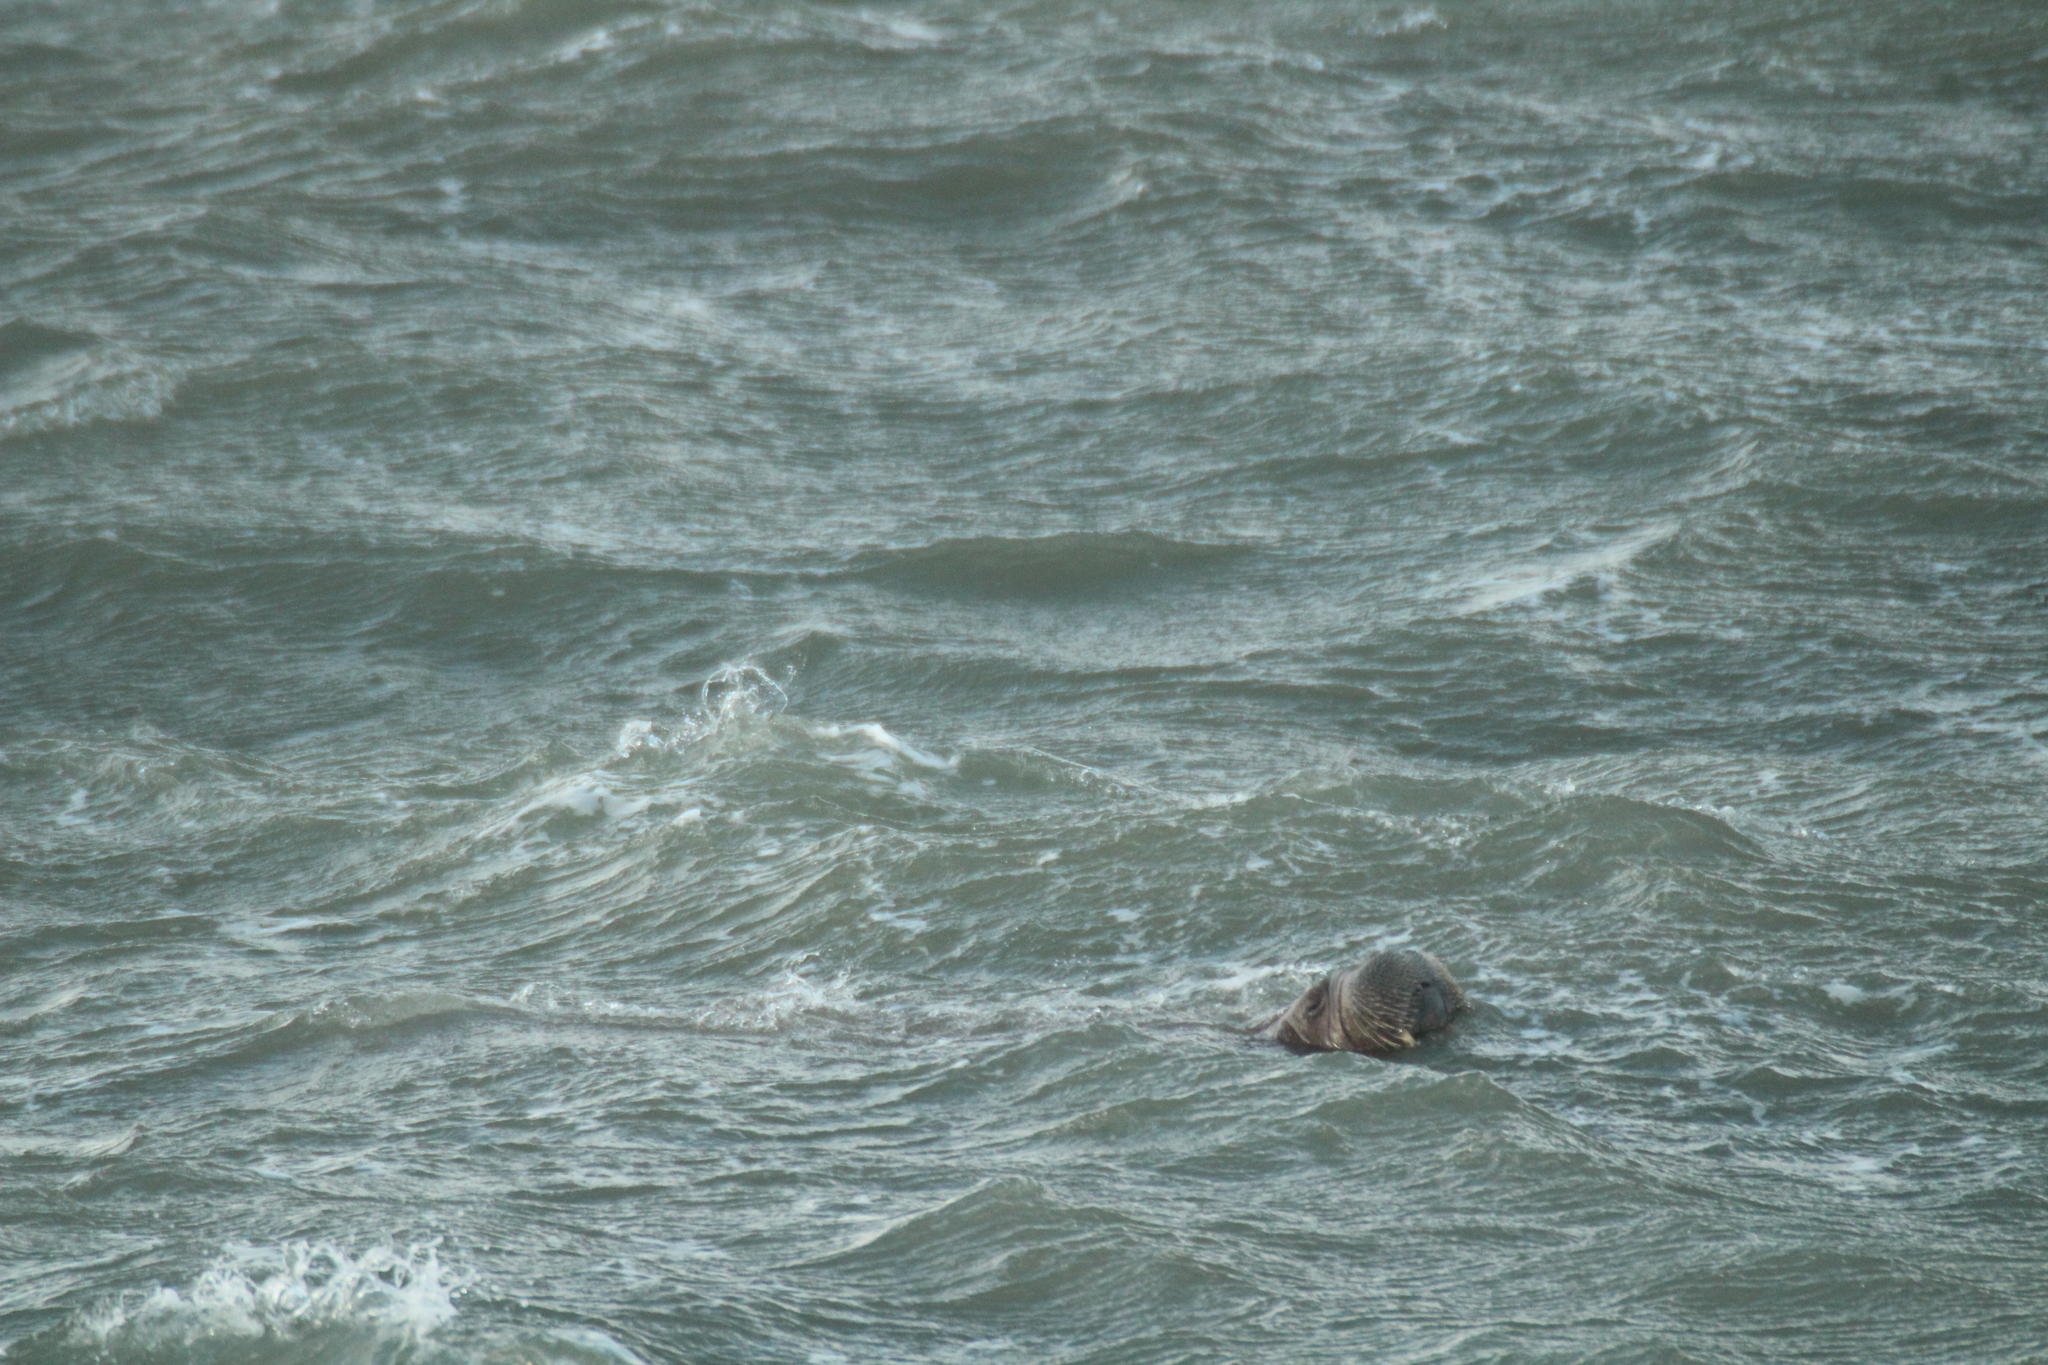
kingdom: Animalia
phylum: Chordata
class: Mammalia
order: Carnivora
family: Odobenidae
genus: Odobenus
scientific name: Odobenus rosmarus
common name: Walrus
